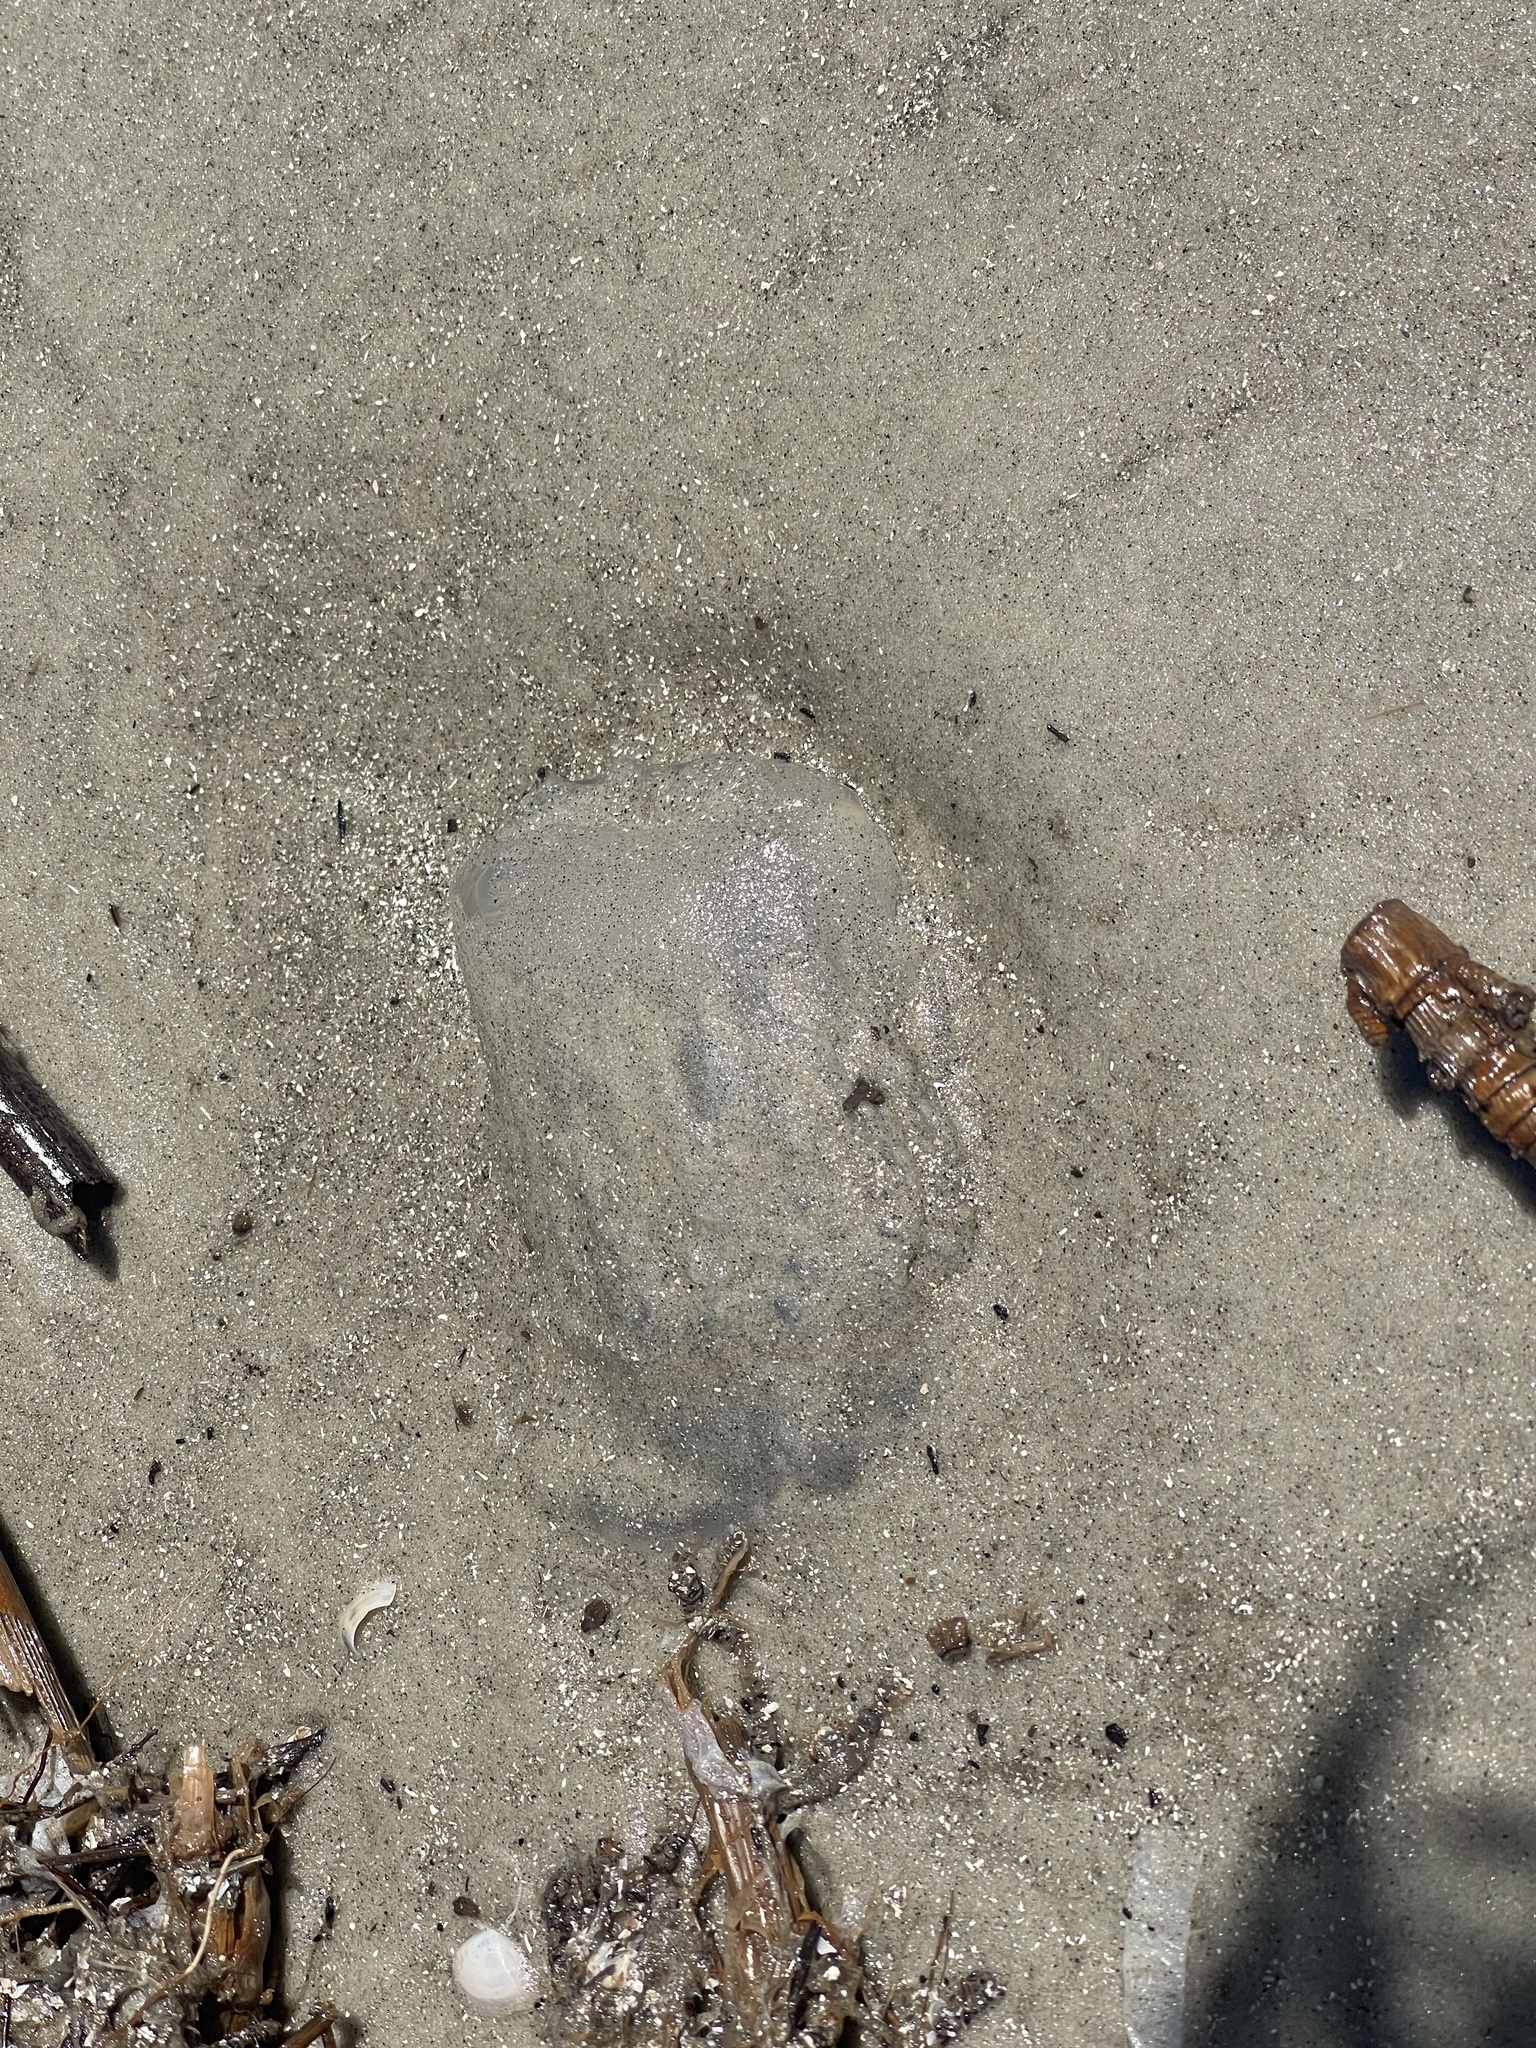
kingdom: Animalia
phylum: Cnidaria
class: Scyphozoa
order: Rhizostomeae
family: Stomolophidae
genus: Stomolophus
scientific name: Stomolophus meleagris
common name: Cabbagehead
